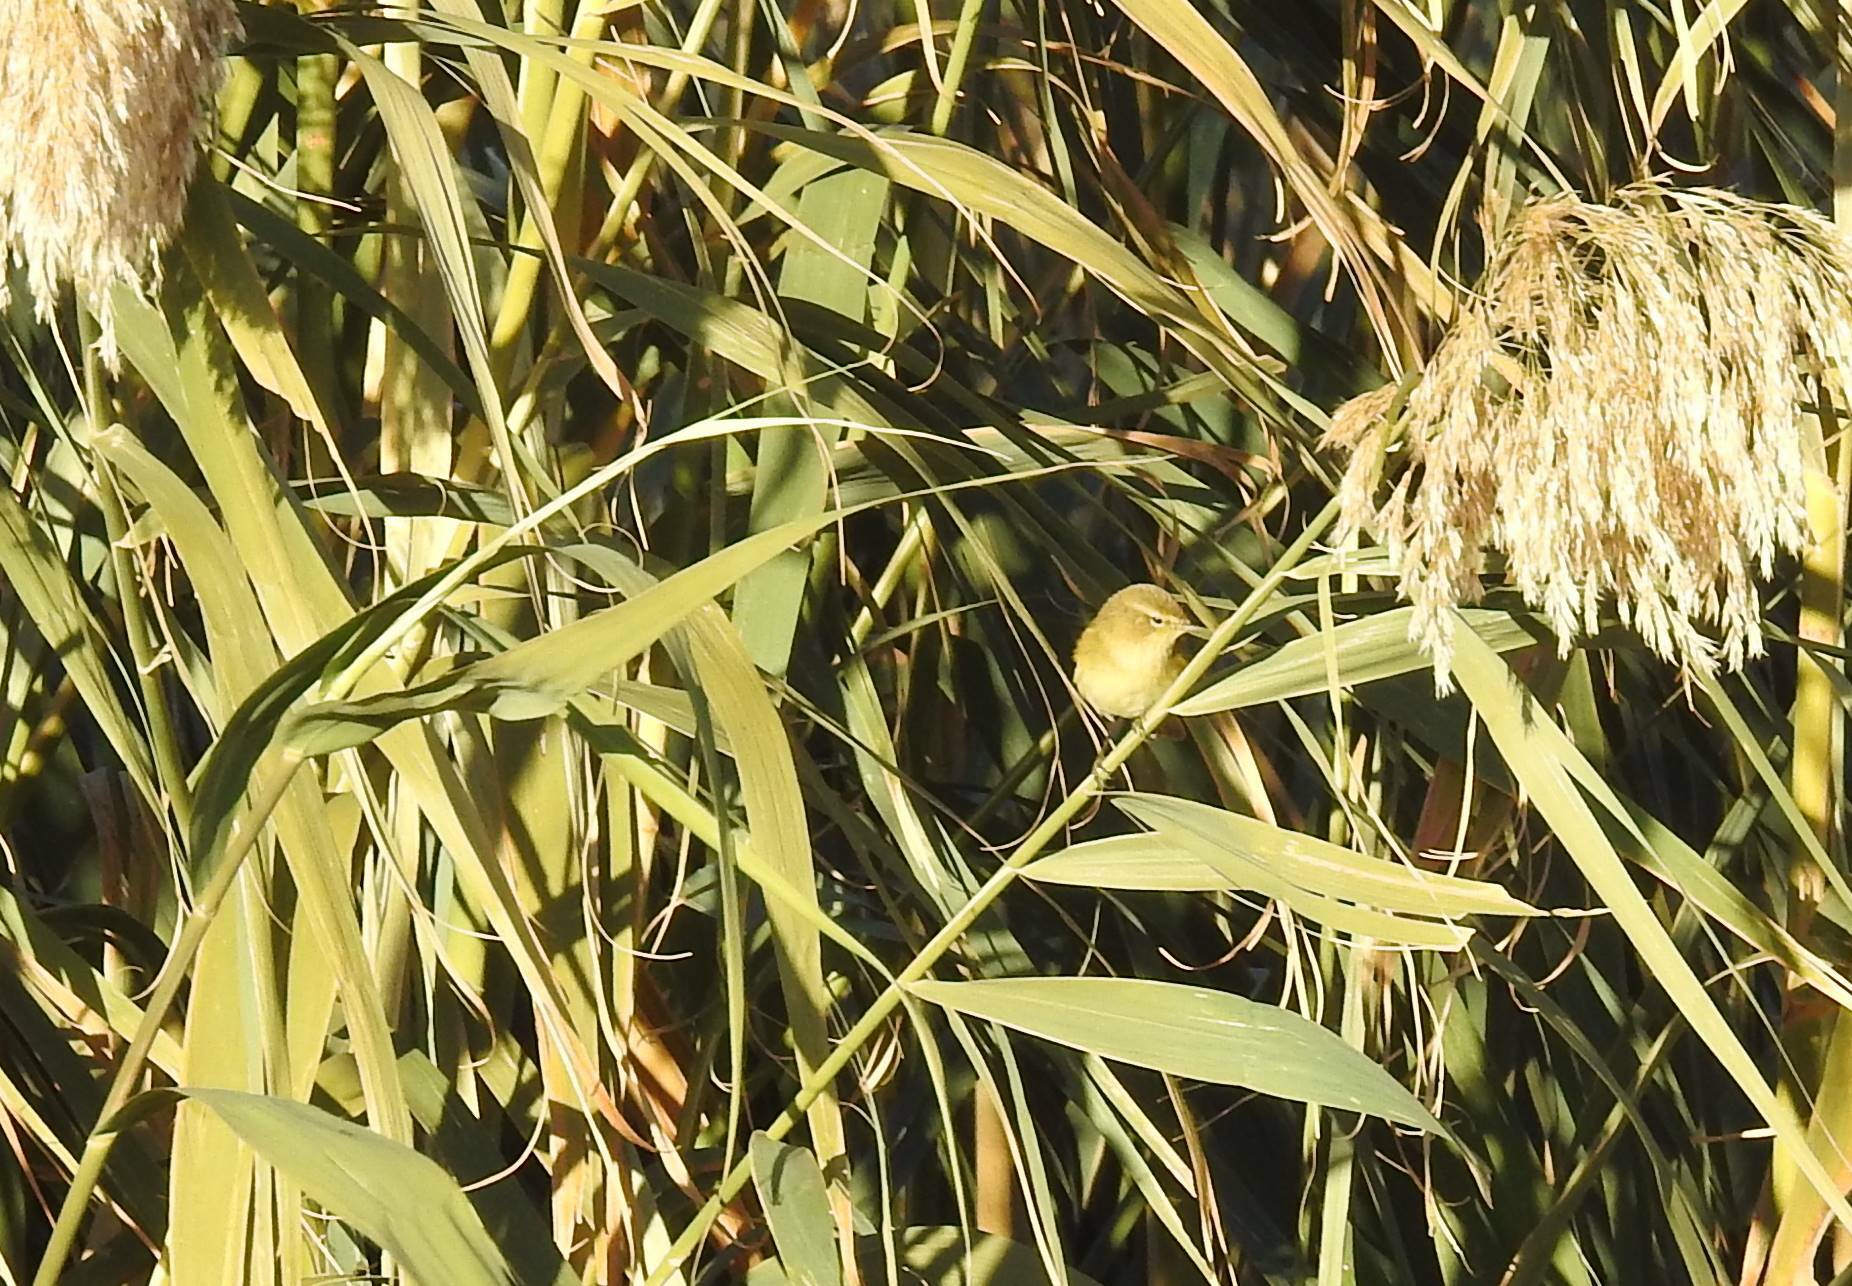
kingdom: Animalia
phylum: Chordata
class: Aves
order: Passeriformes
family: Phylloscopidae
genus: Phylloscopus
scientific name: Phylloscopus collybita
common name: Common chiffchaff
